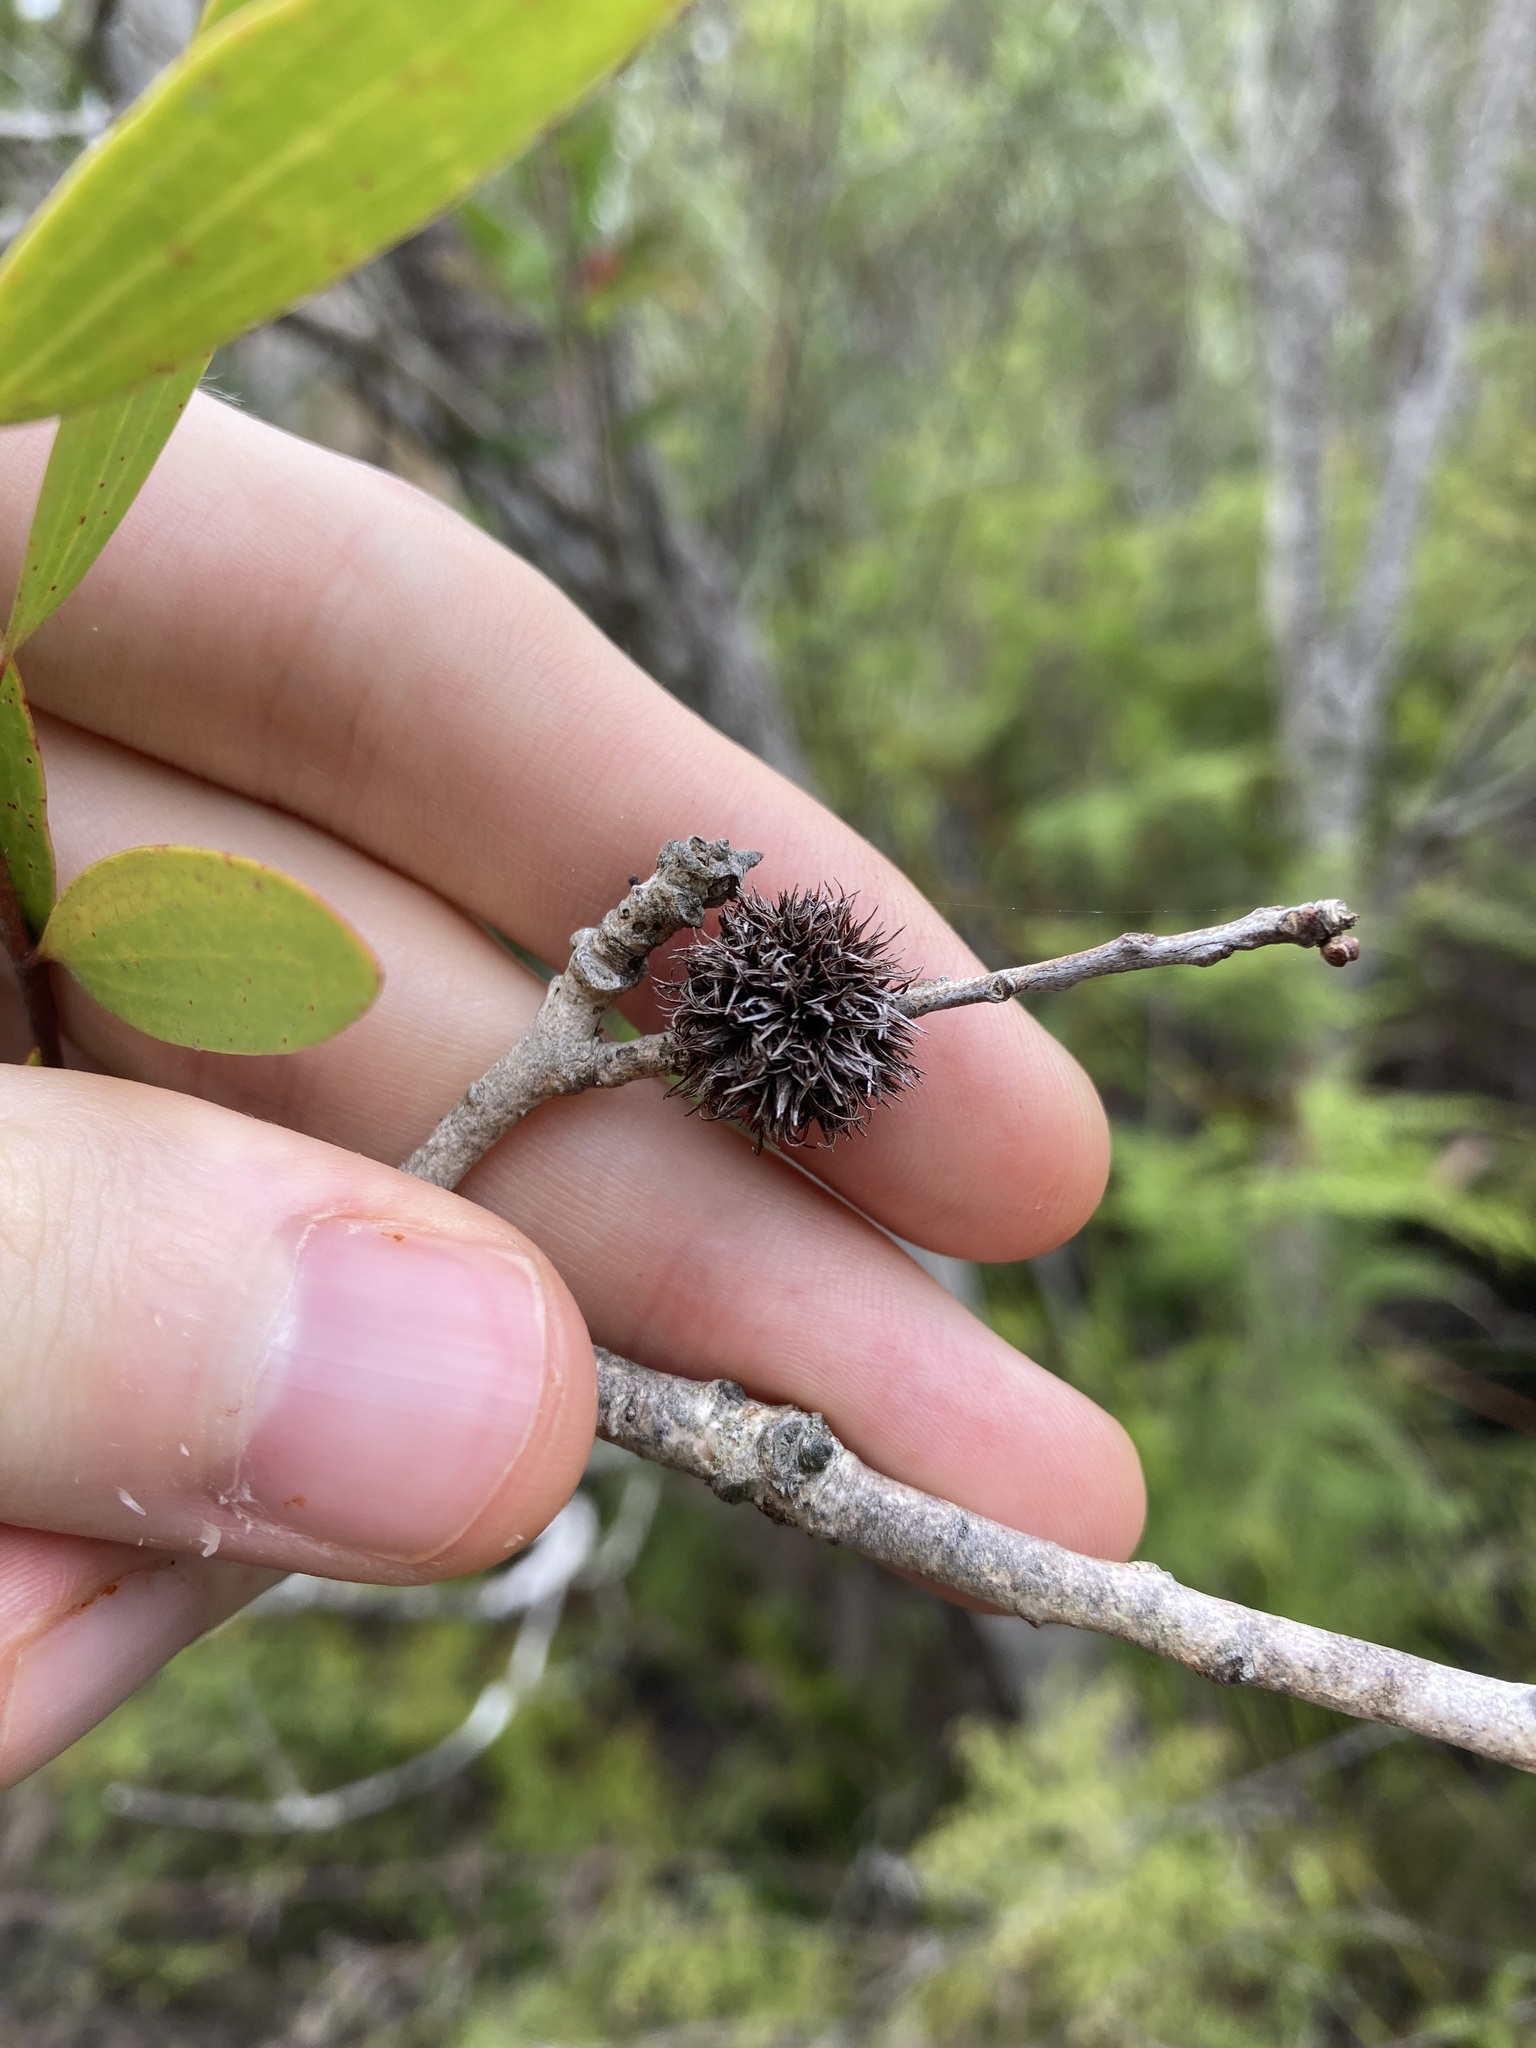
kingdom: Animalia
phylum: Arthropoda
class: Insecta
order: Hemiptera
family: Beesoniidae
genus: Beesonia
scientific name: Beesonia ferrugineus
